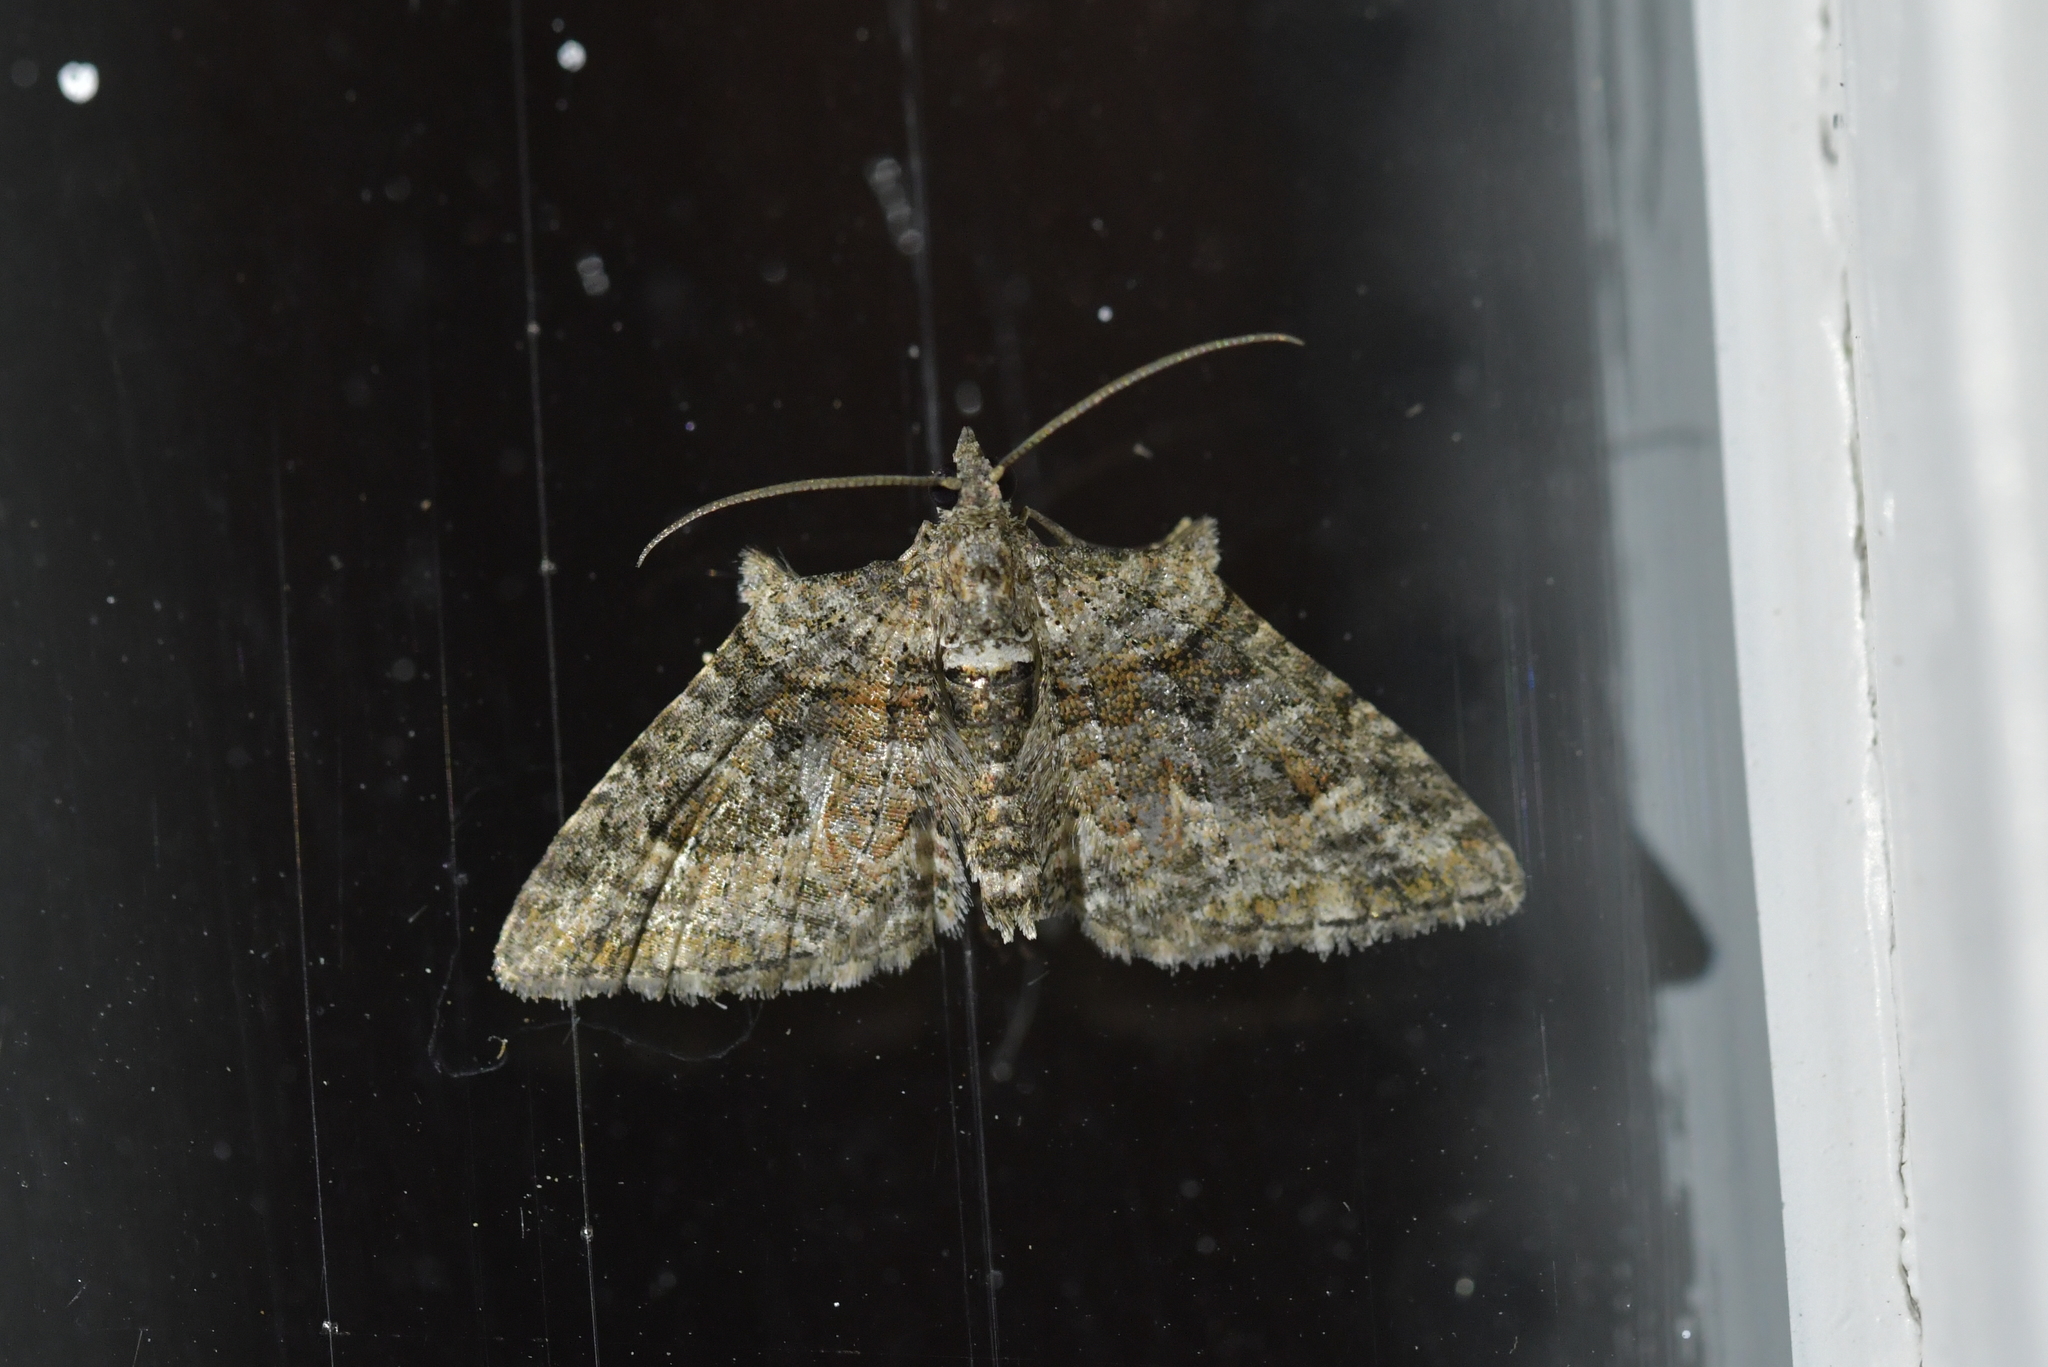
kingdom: Animalia
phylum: Arthropoda
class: Insecta
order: Lepidoptera
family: Geometridae
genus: Phrissogonus
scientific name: Phrissogonus laticostata
